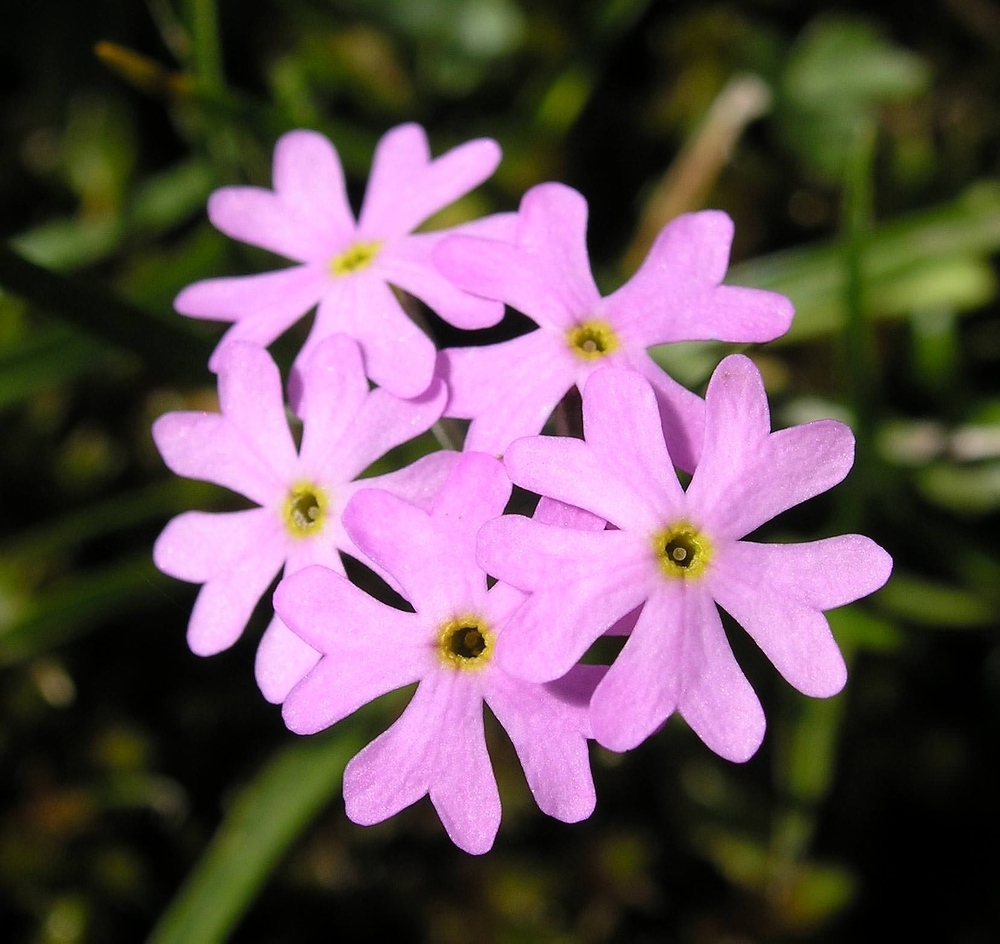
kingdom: Plantae
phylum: Tracheophyta
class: Magnoliopsida
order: Ericales
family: Primulaceae
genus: Primula
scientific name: Primula farinosa
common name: Bird's-eye primrose
